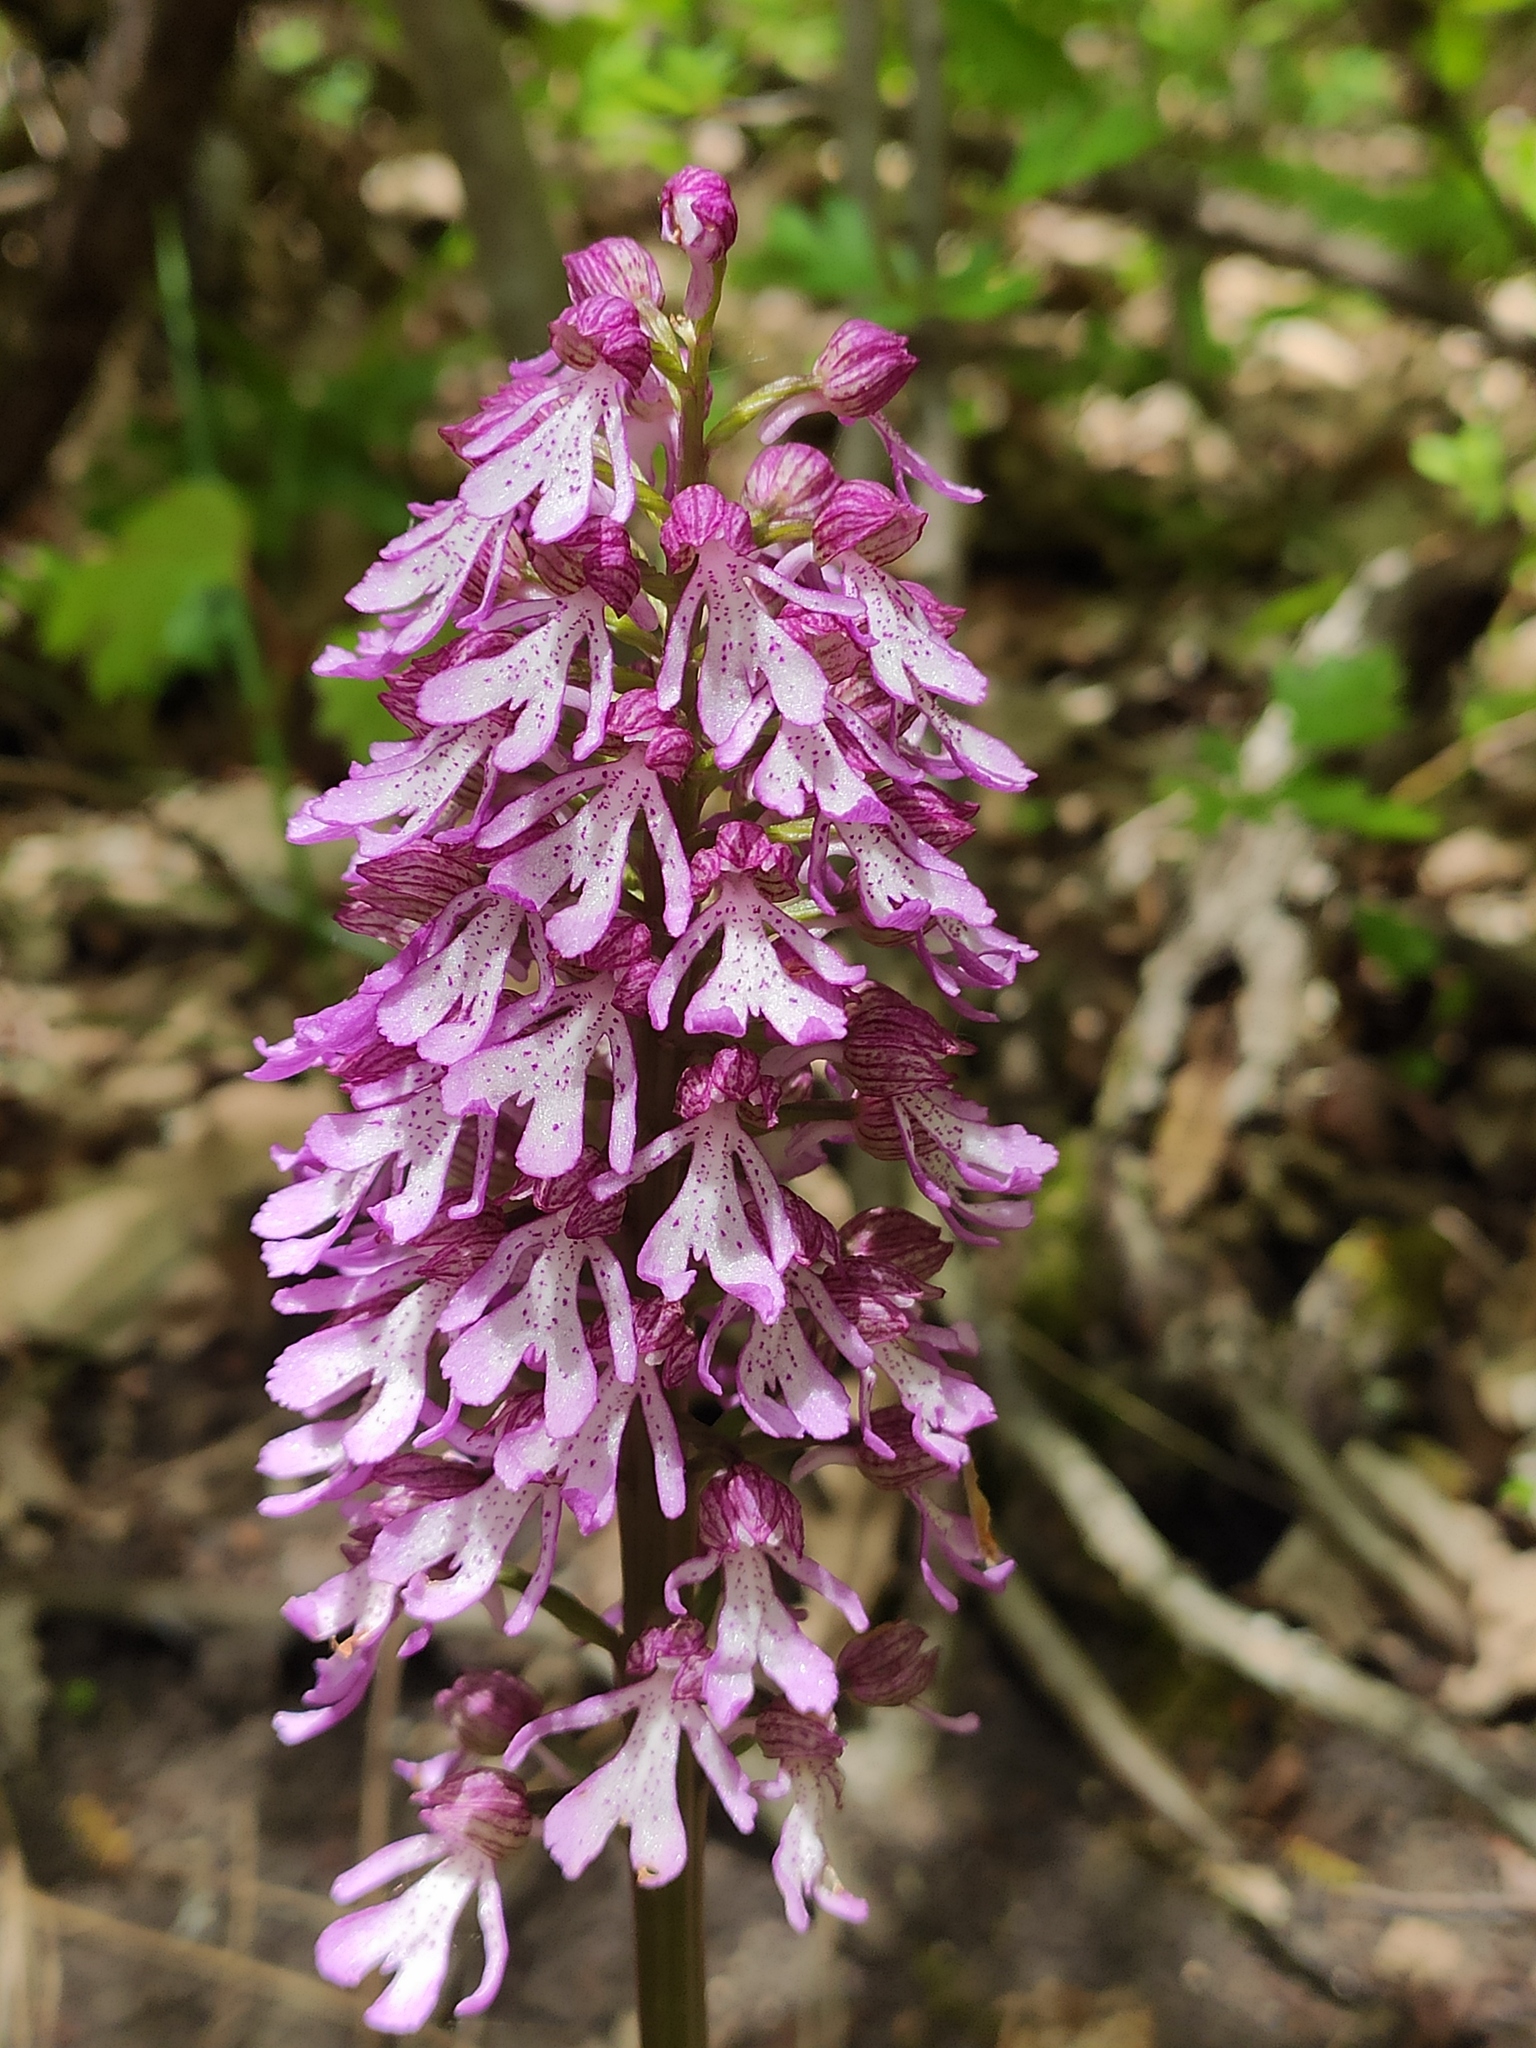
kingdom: Plantae
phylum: Tracheophyta
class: Liliopsida
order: Asparagales
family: Orchidaceae
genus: Orchis
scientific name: Orchis purpurea
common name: Lady orchid
